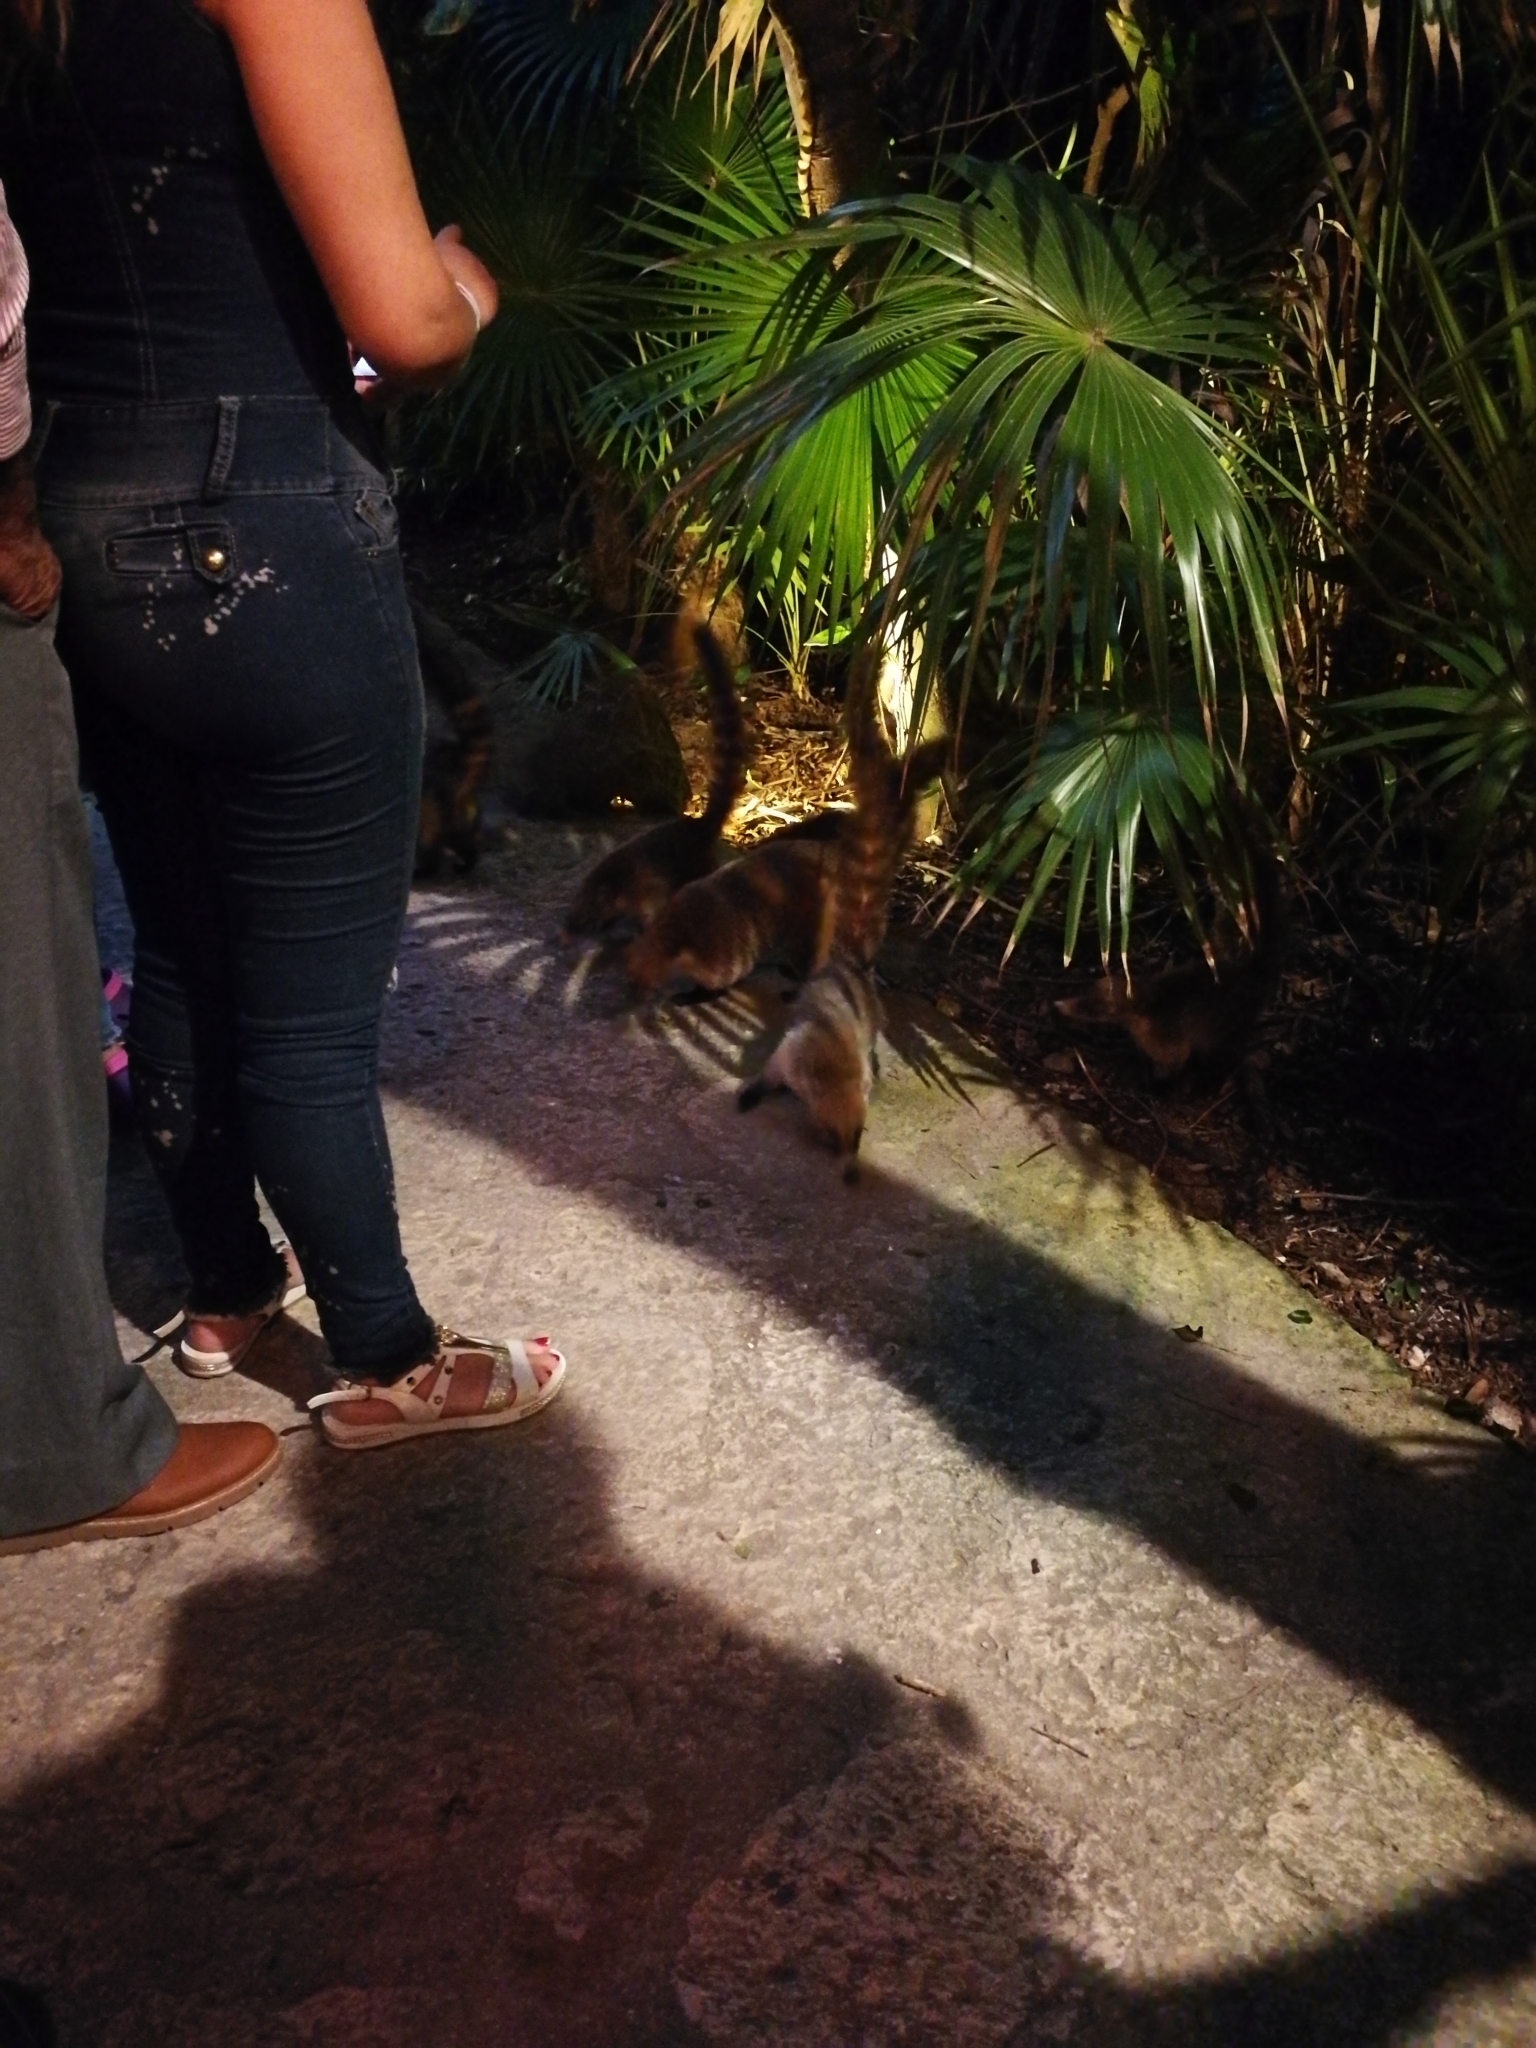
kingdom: Animalia
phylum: Chordata
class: Mammalia
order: Carnivora
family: Procyonidae
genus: Nasua
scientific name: Nasua narica
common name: White-nosed coati
